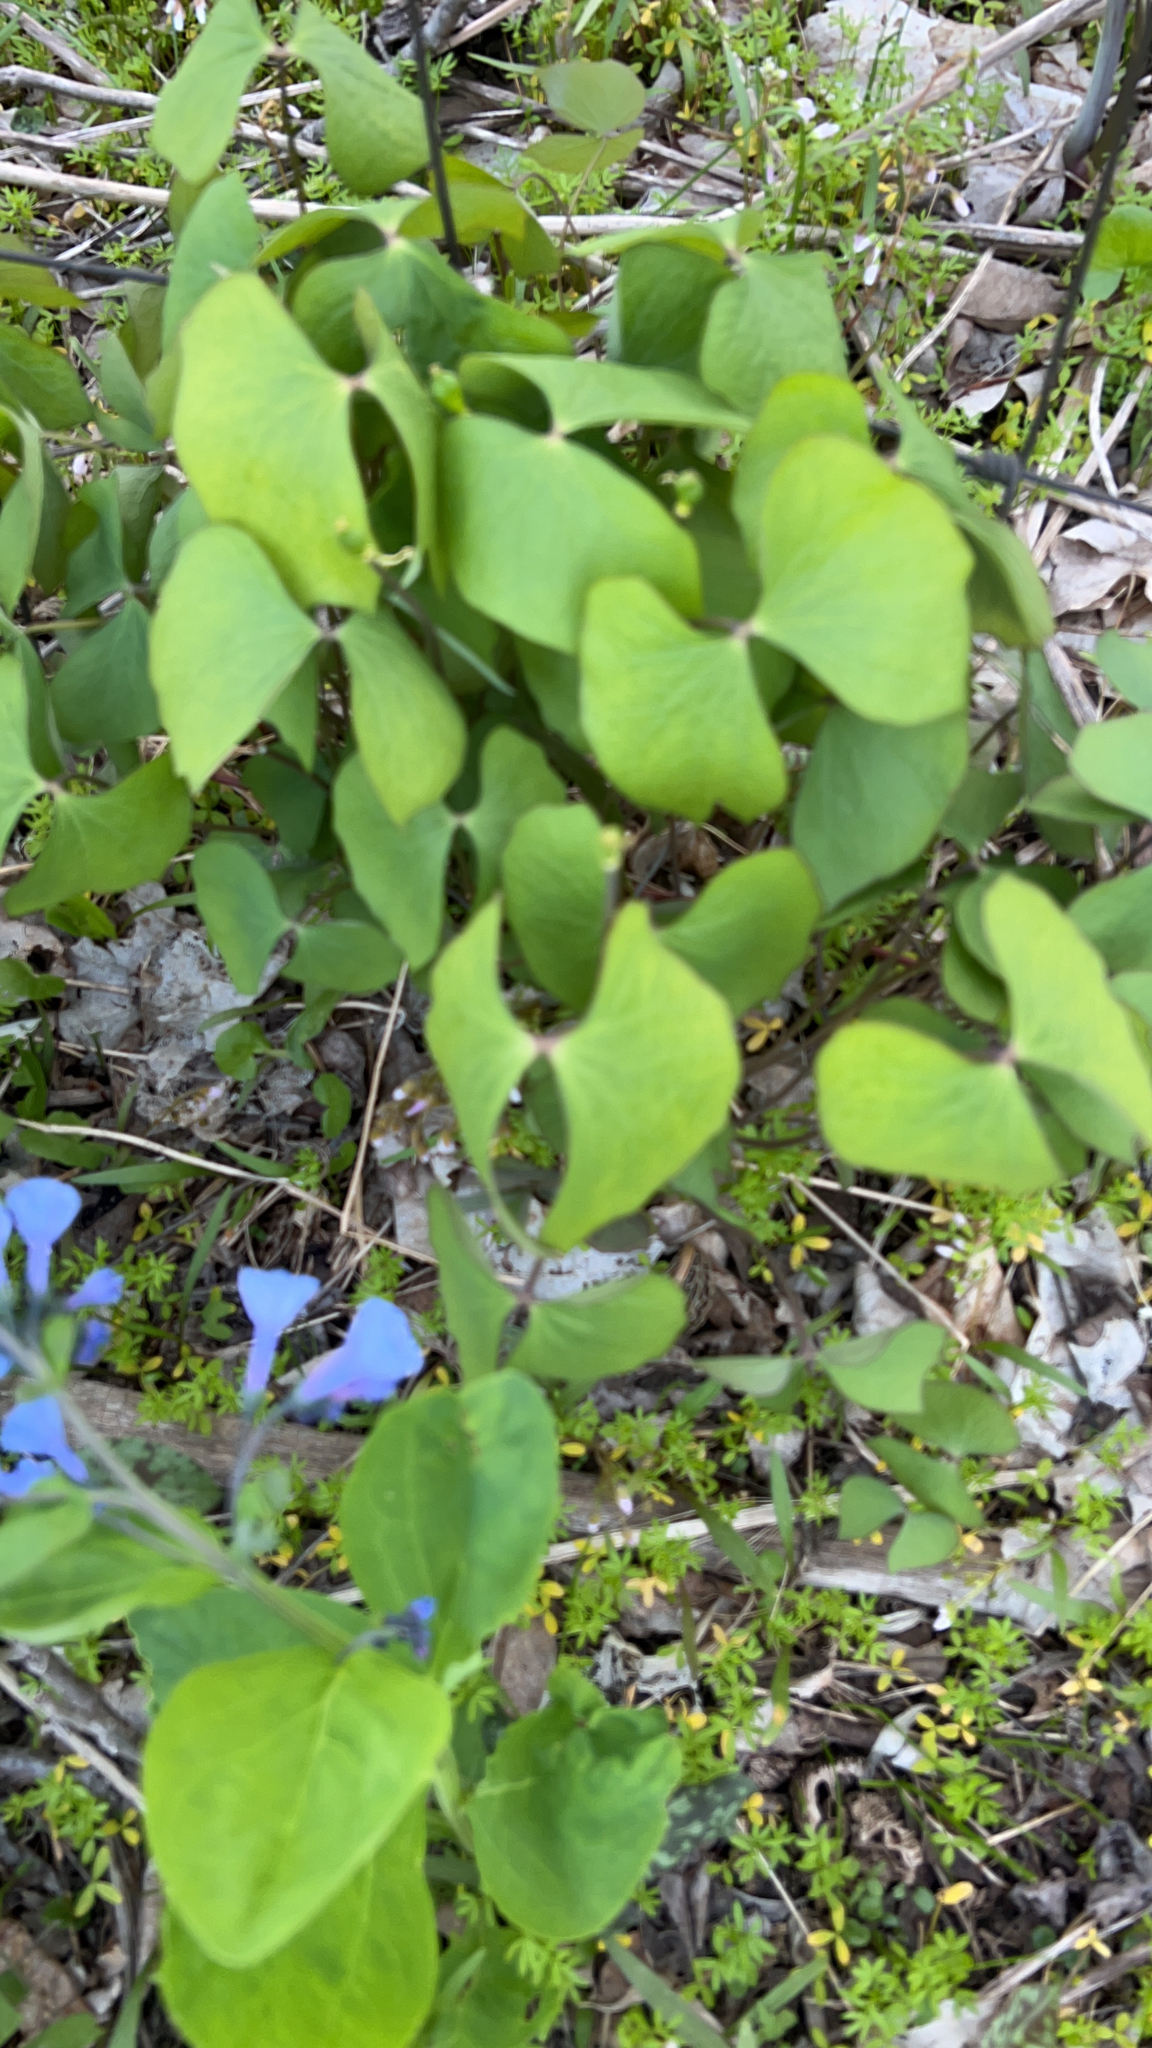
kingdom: Plantae
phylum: Tracheophyta
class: Magnoliopsida
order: Ranunculales
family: Berberidaceae
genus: Jeffersonia
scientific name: Jeffersonia diphylla
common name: Rheumatism-root
